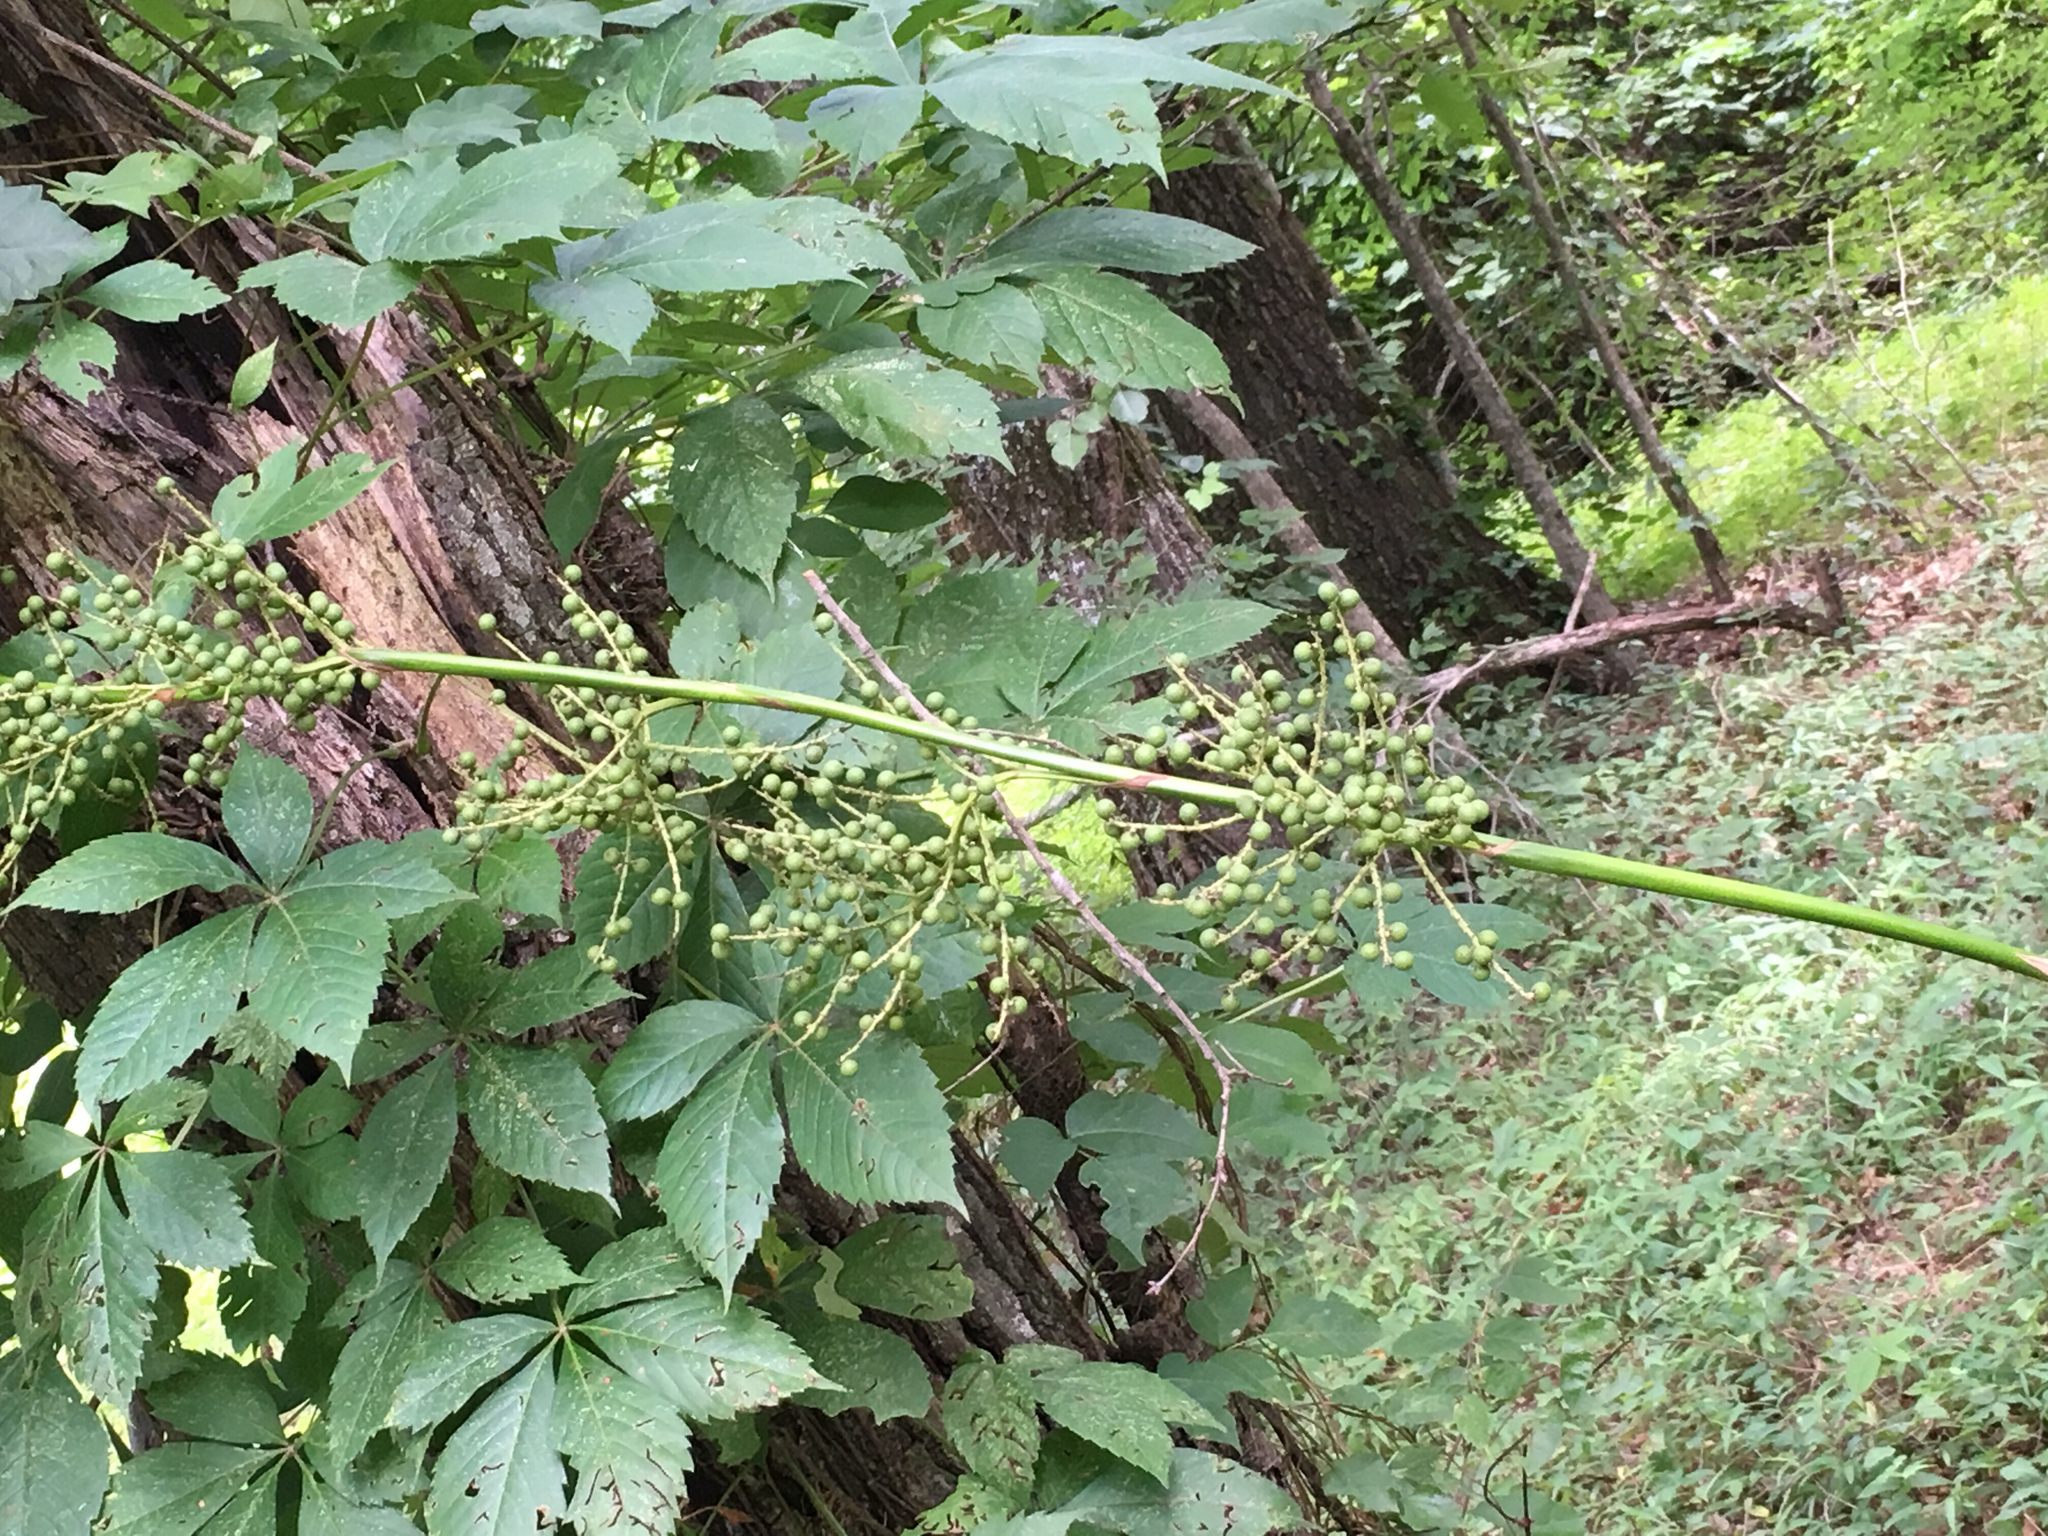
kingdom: Plantae
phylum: Tracheophyta
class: Liliopsida
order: Arecales
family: Arecaceae
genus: Sabal
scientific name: Sabal minor
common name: Dwarf palmetto
